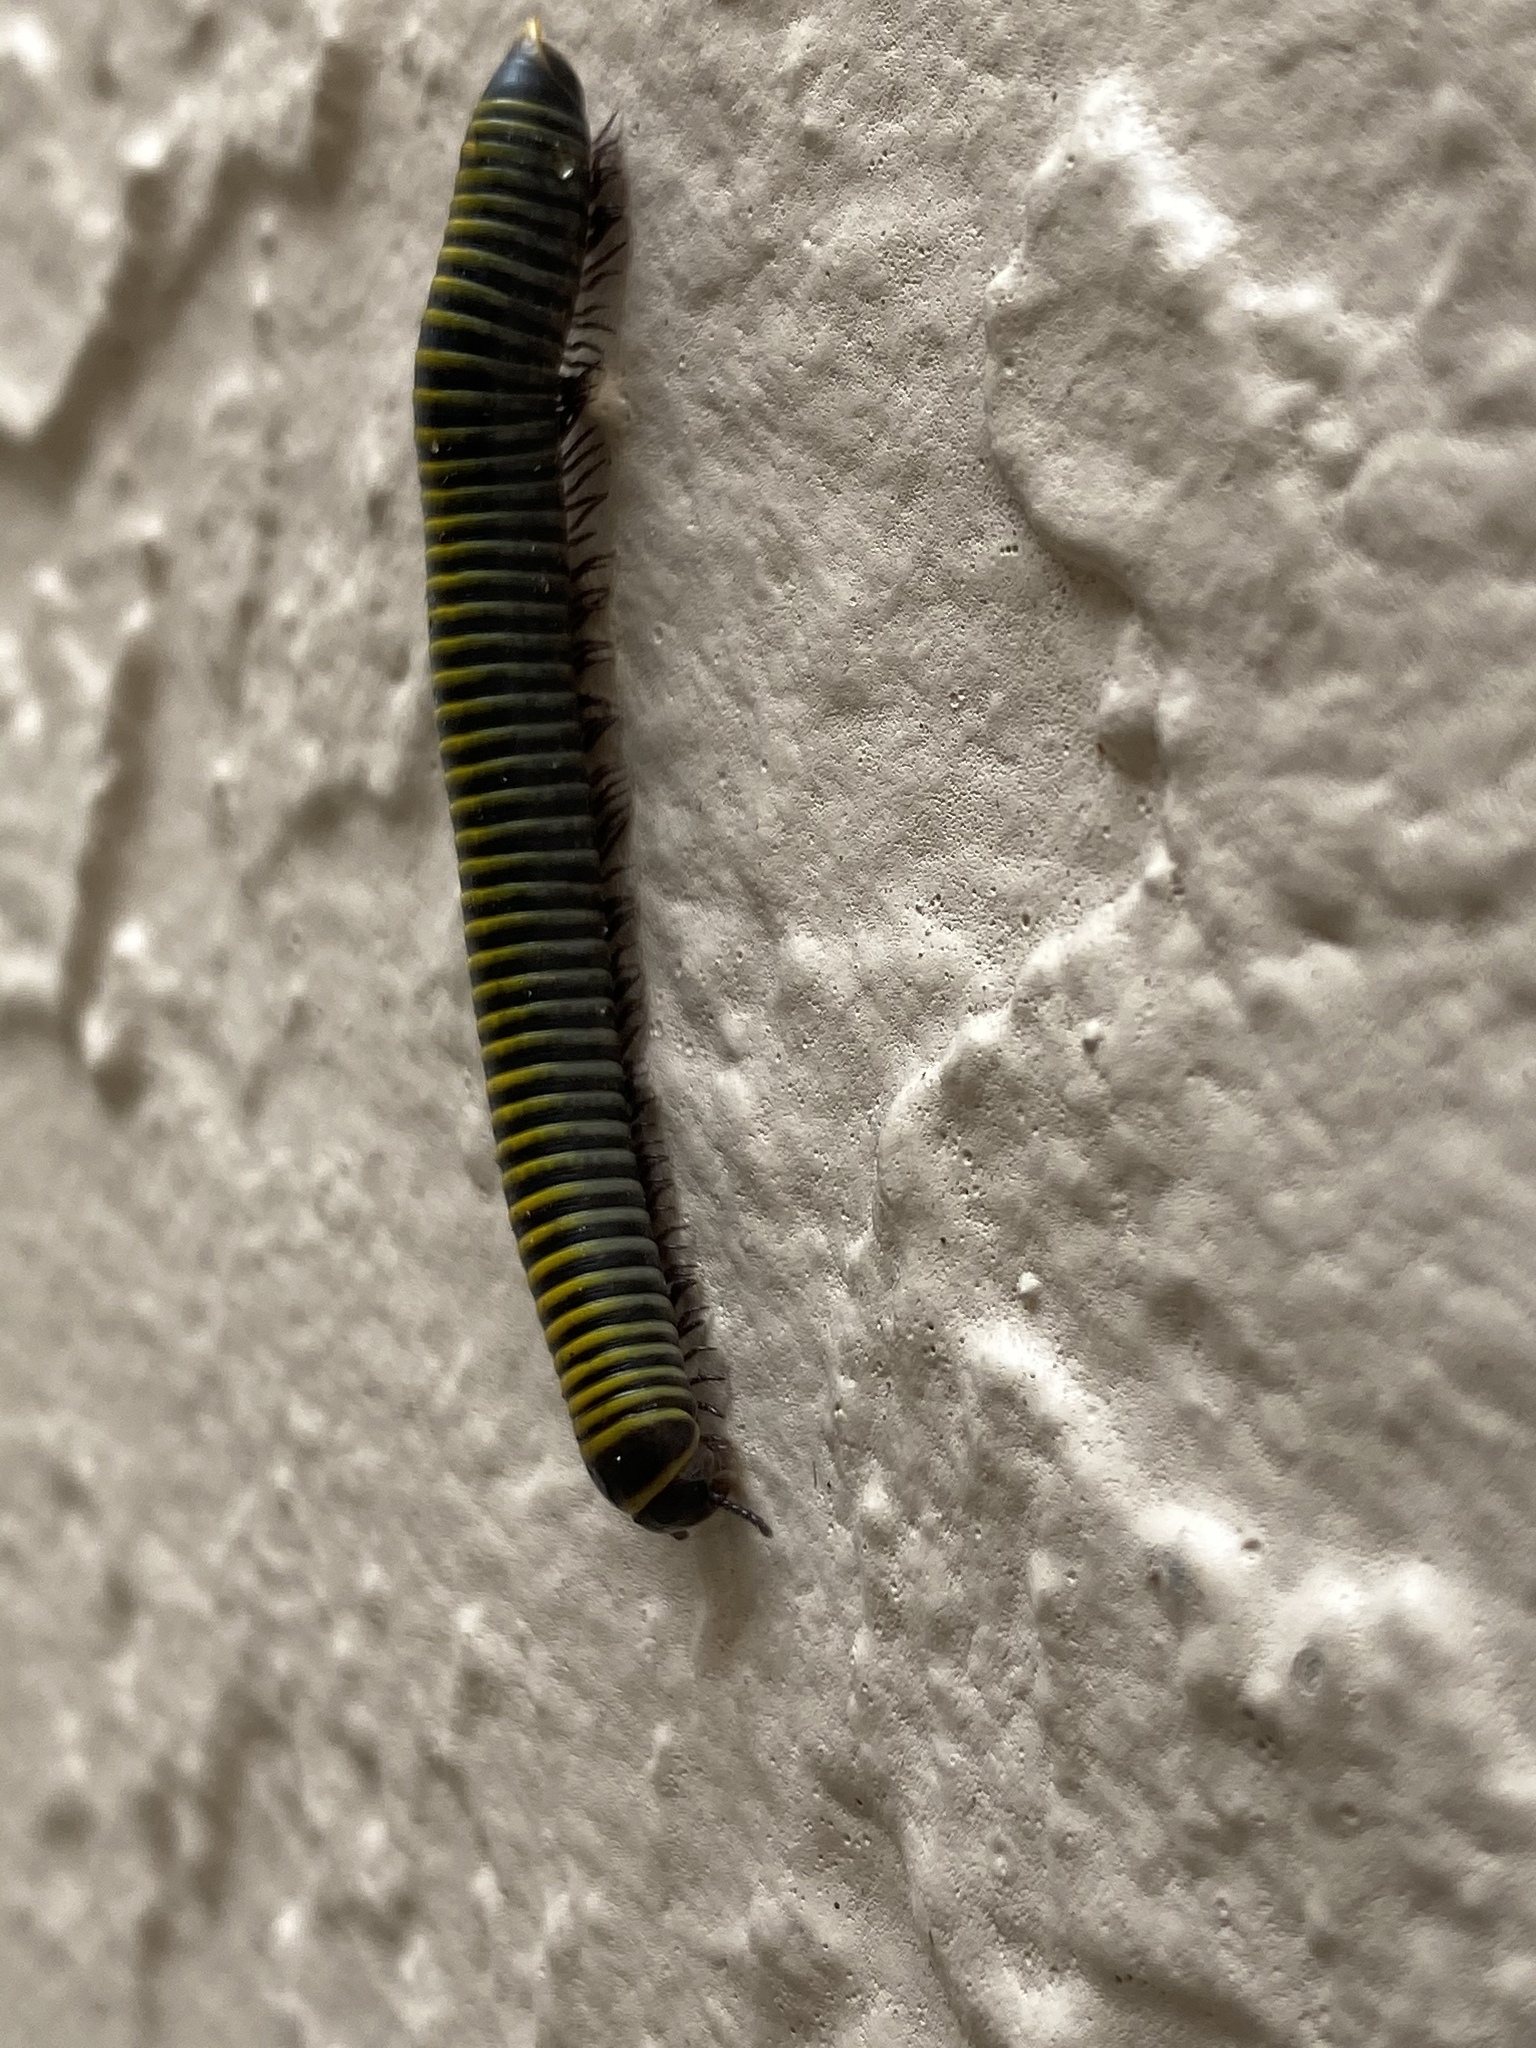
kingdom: Animalia
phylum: Arthropoda
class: Diplopoda
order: Spirobolida
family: Rhinocricidae
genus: Anadenobolus
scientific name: Anadenobolus monilicornis
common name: Caribbean millipede
